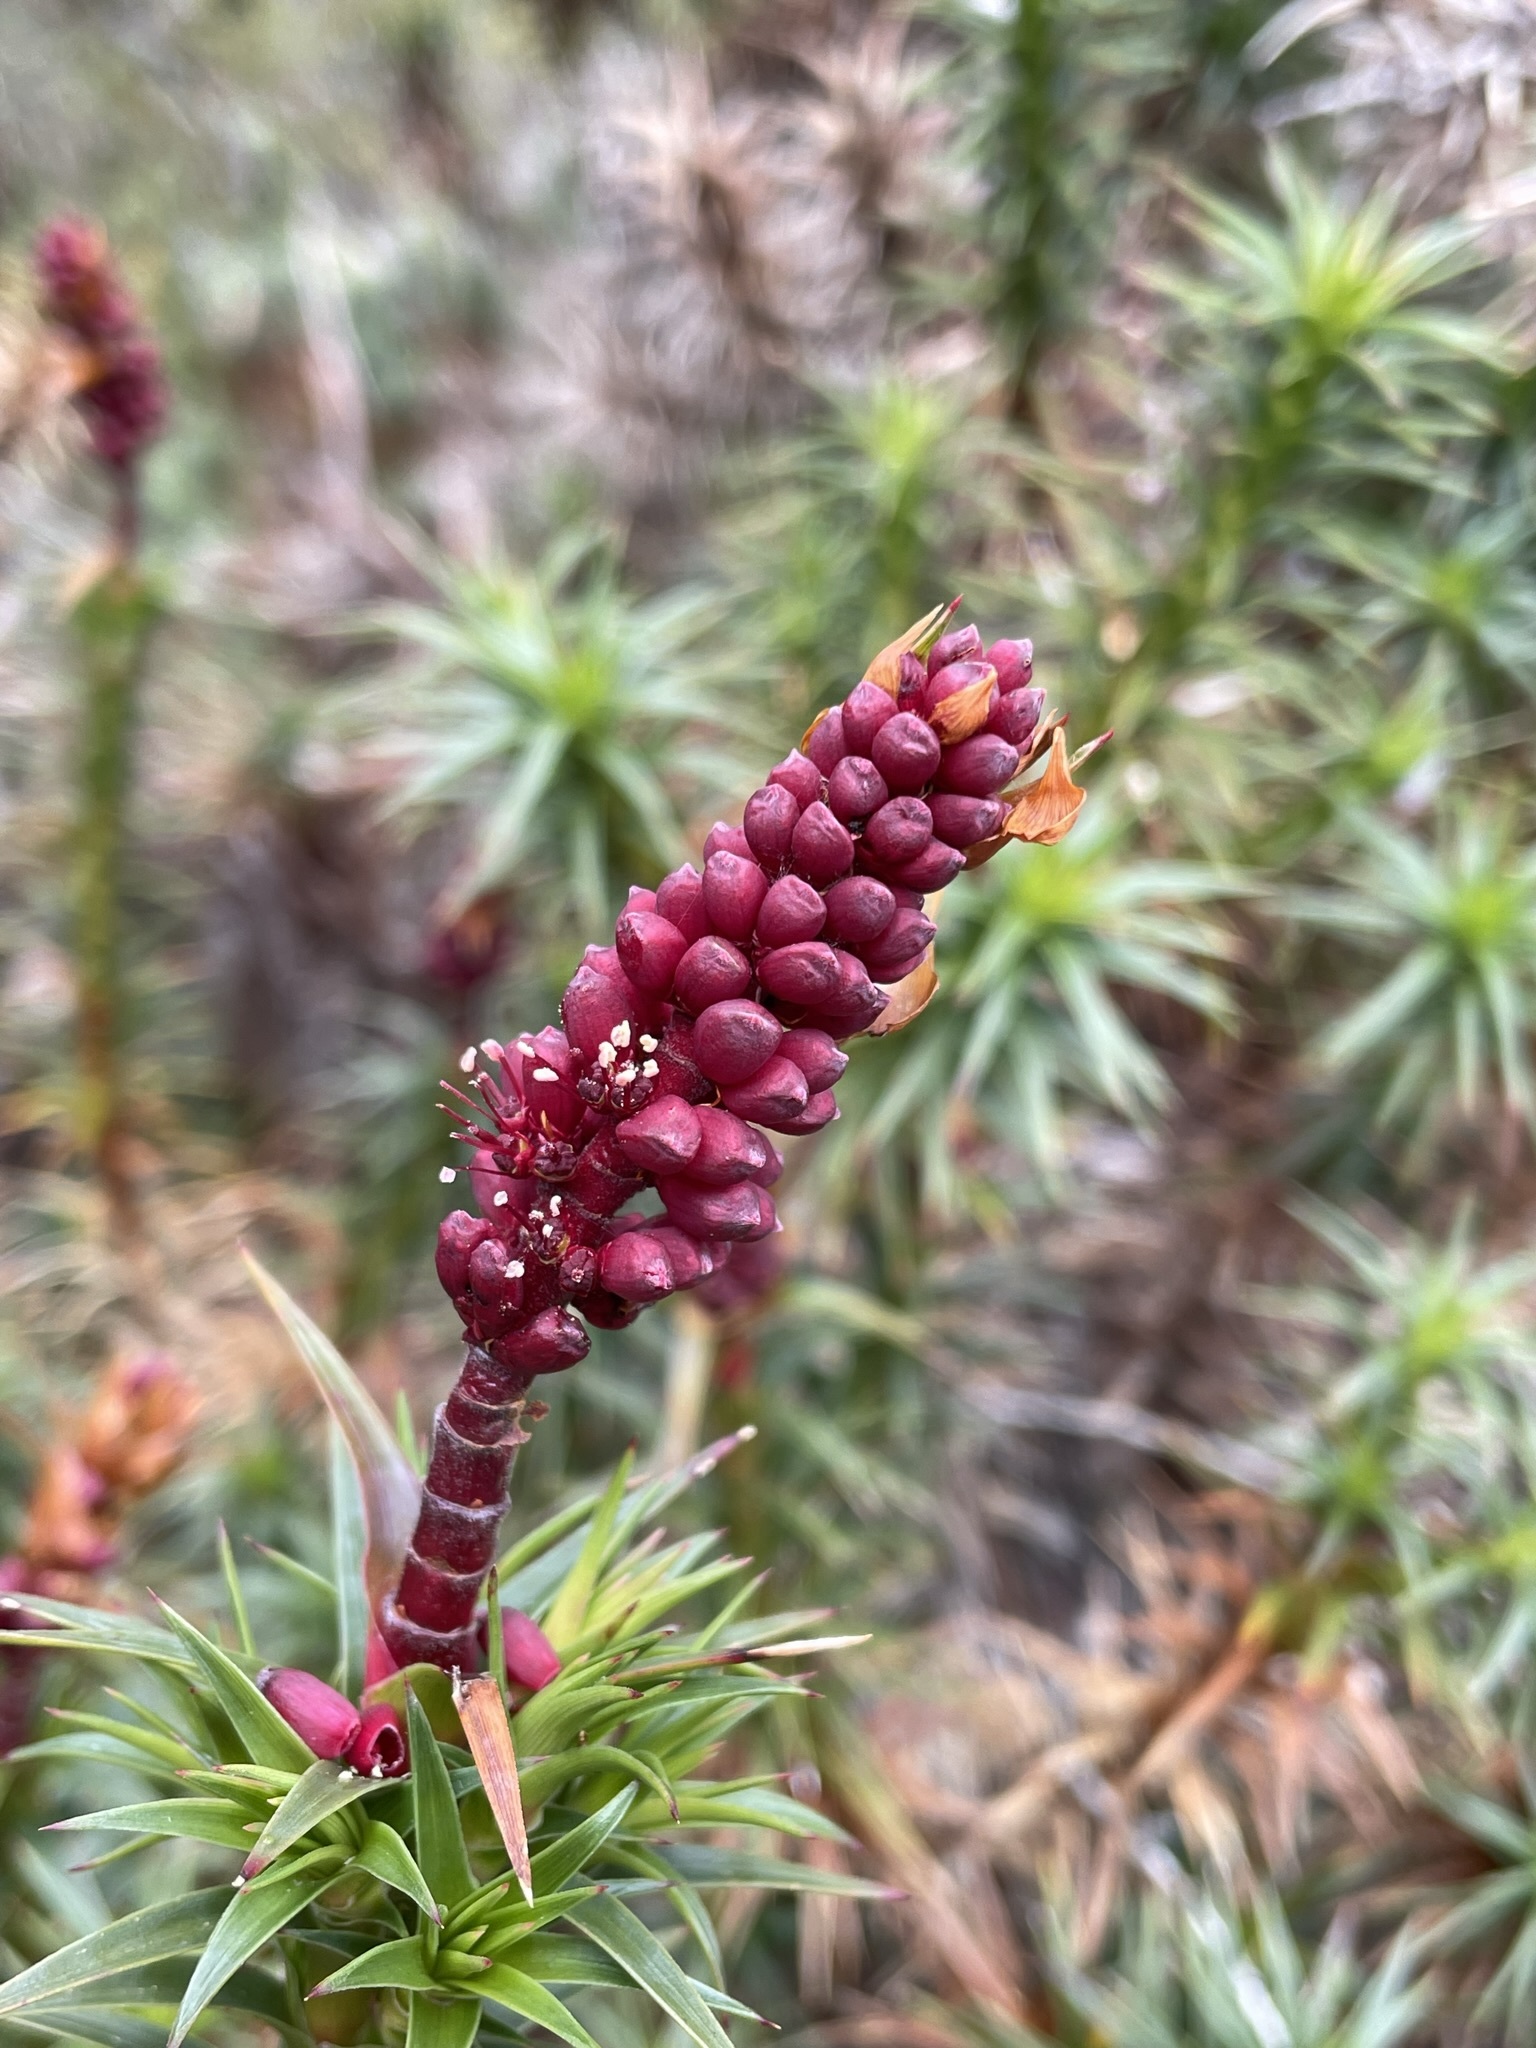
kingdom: Plantae
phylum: Tracheophyta
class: Magnoliopsida
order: Ericales
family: Ericaceae
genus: Dracophyllum
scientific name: Dracophyllum persistentifolium
